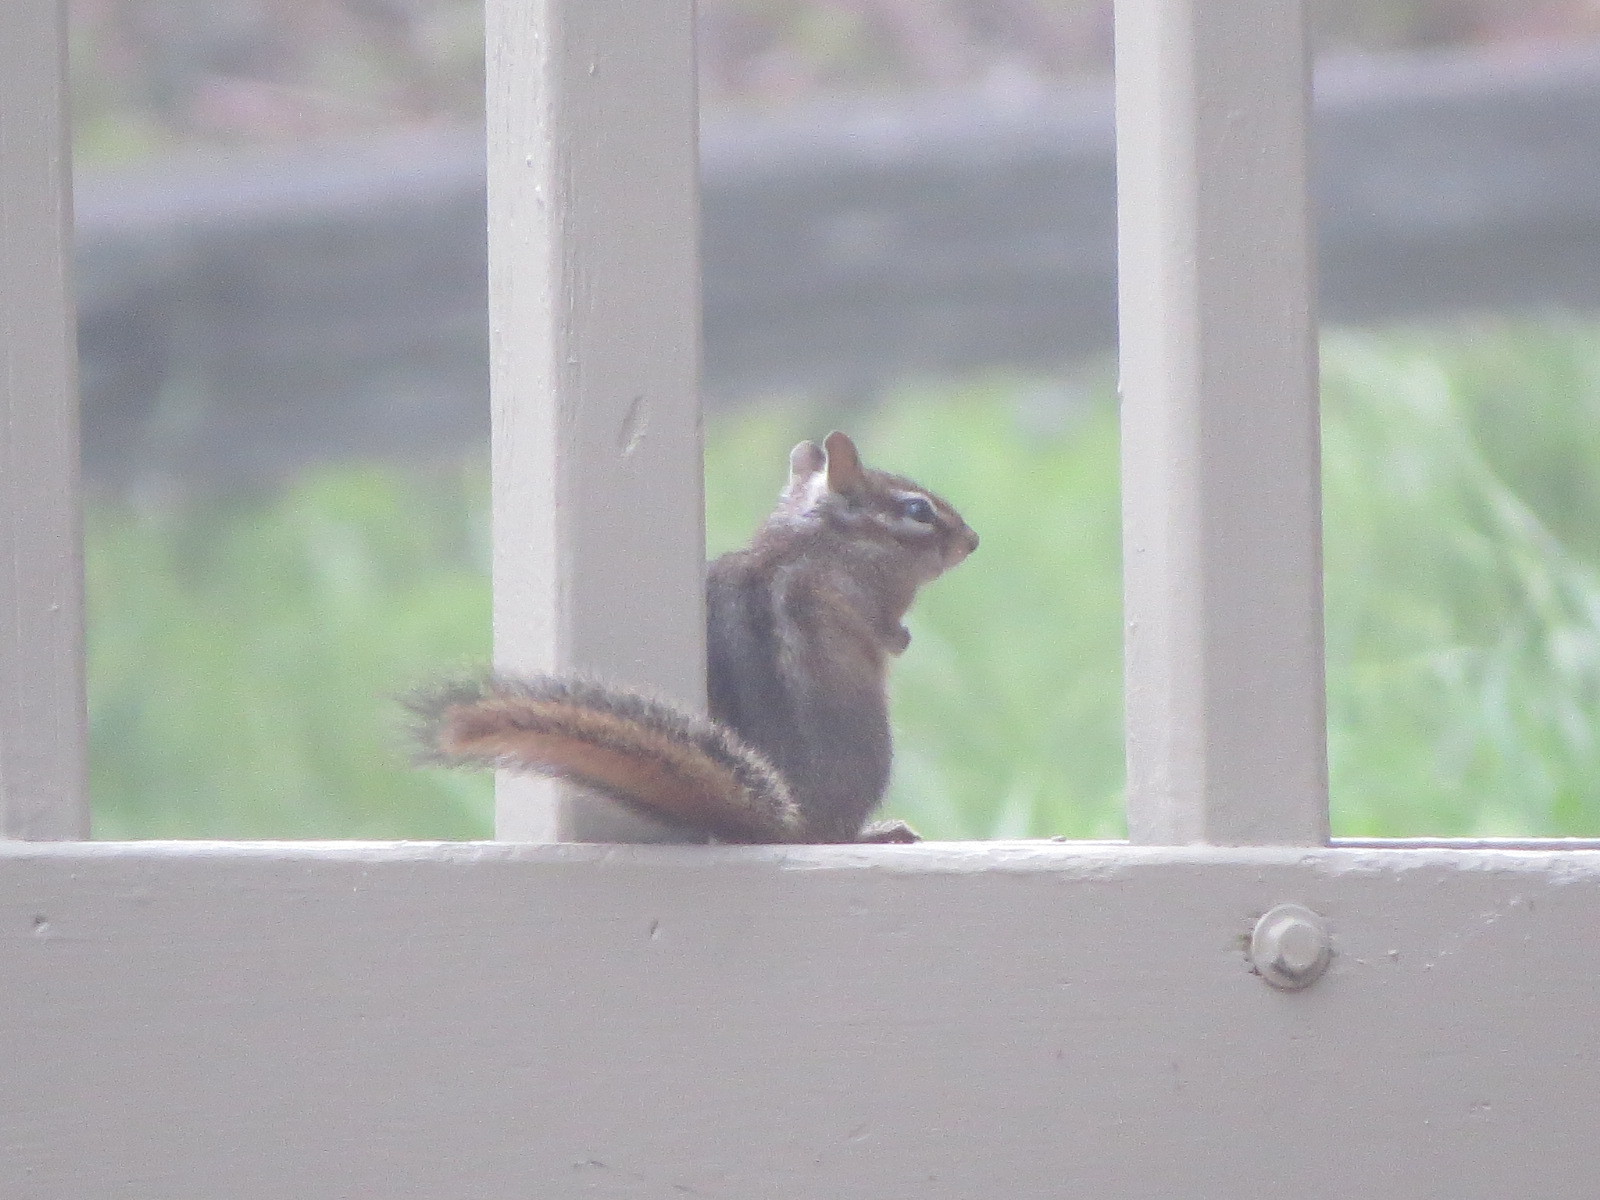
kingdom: Animalia
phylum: Chordata
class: Mammalia
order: Rodentia
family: Sciuridae
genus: Tamias
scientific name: Tamias merriami
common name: Merriam's chipmunk
